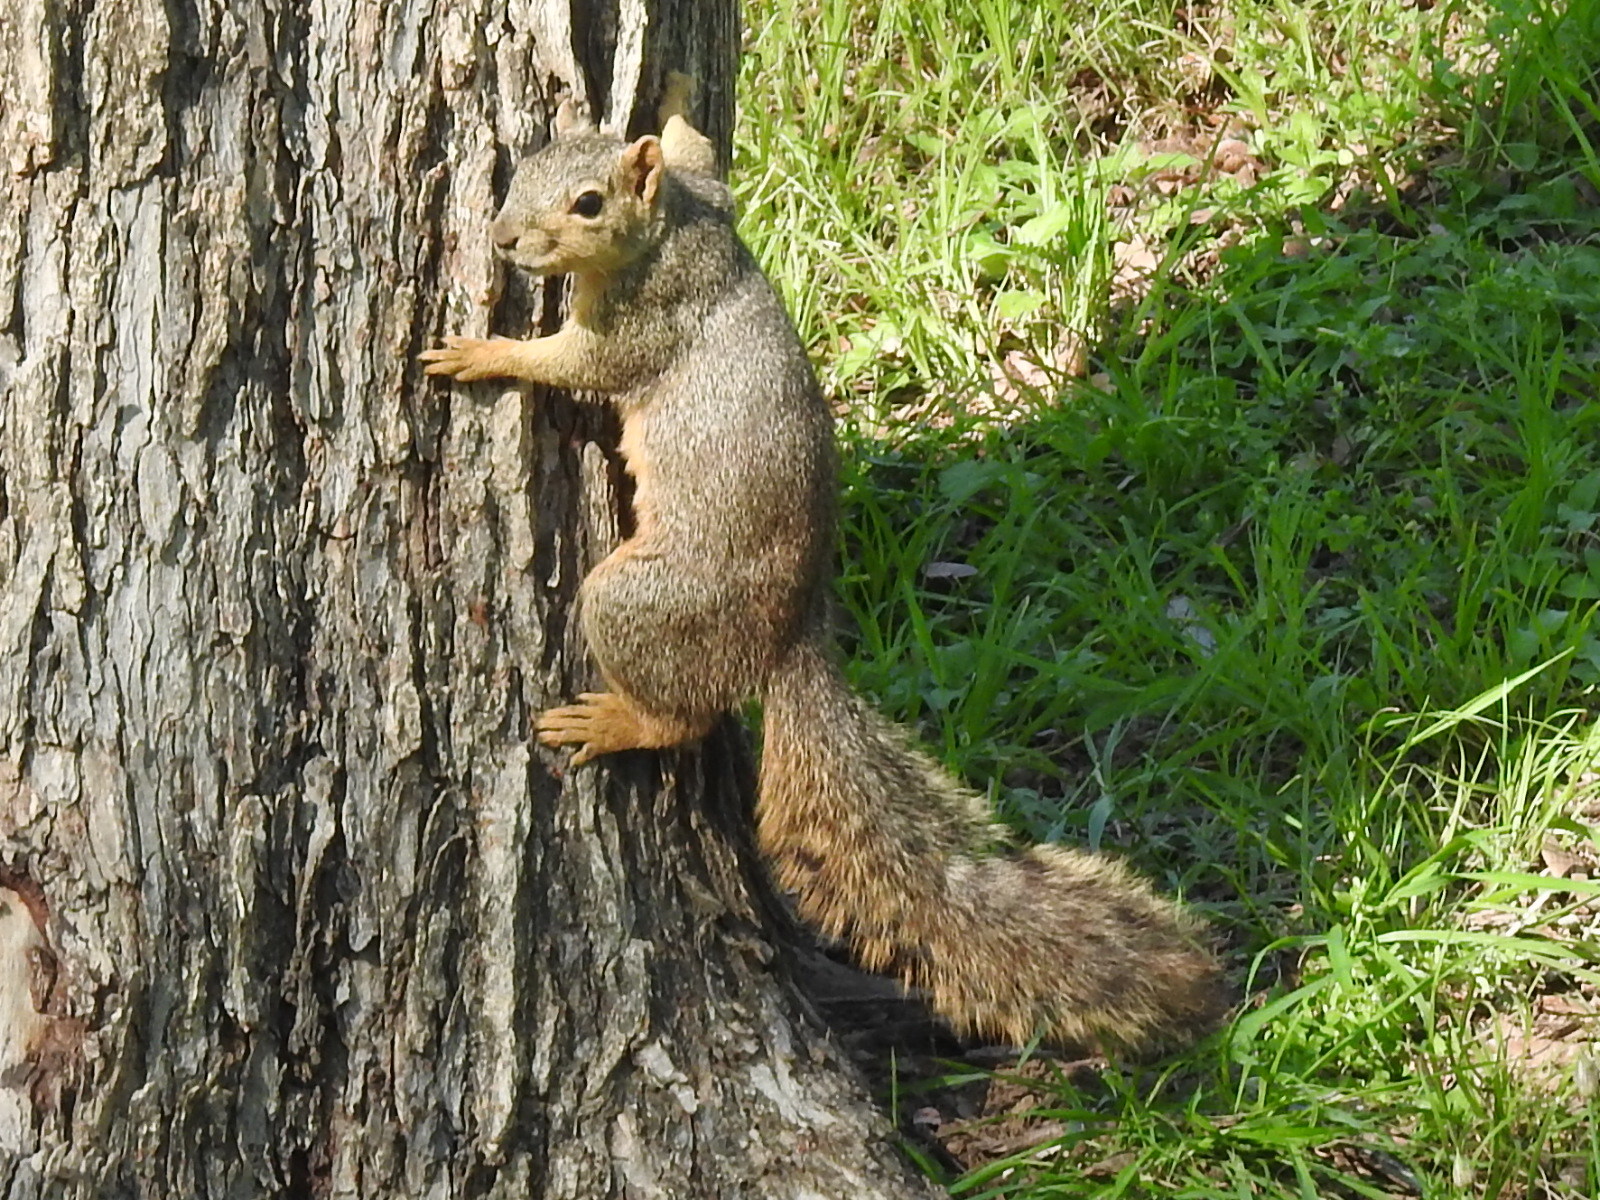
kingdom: Animalia
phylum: Chordata
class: Mammalia
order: Rodentia
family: Sciuridae
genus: Sciurus
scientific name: Sciurus niger
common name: Fox squirrel
